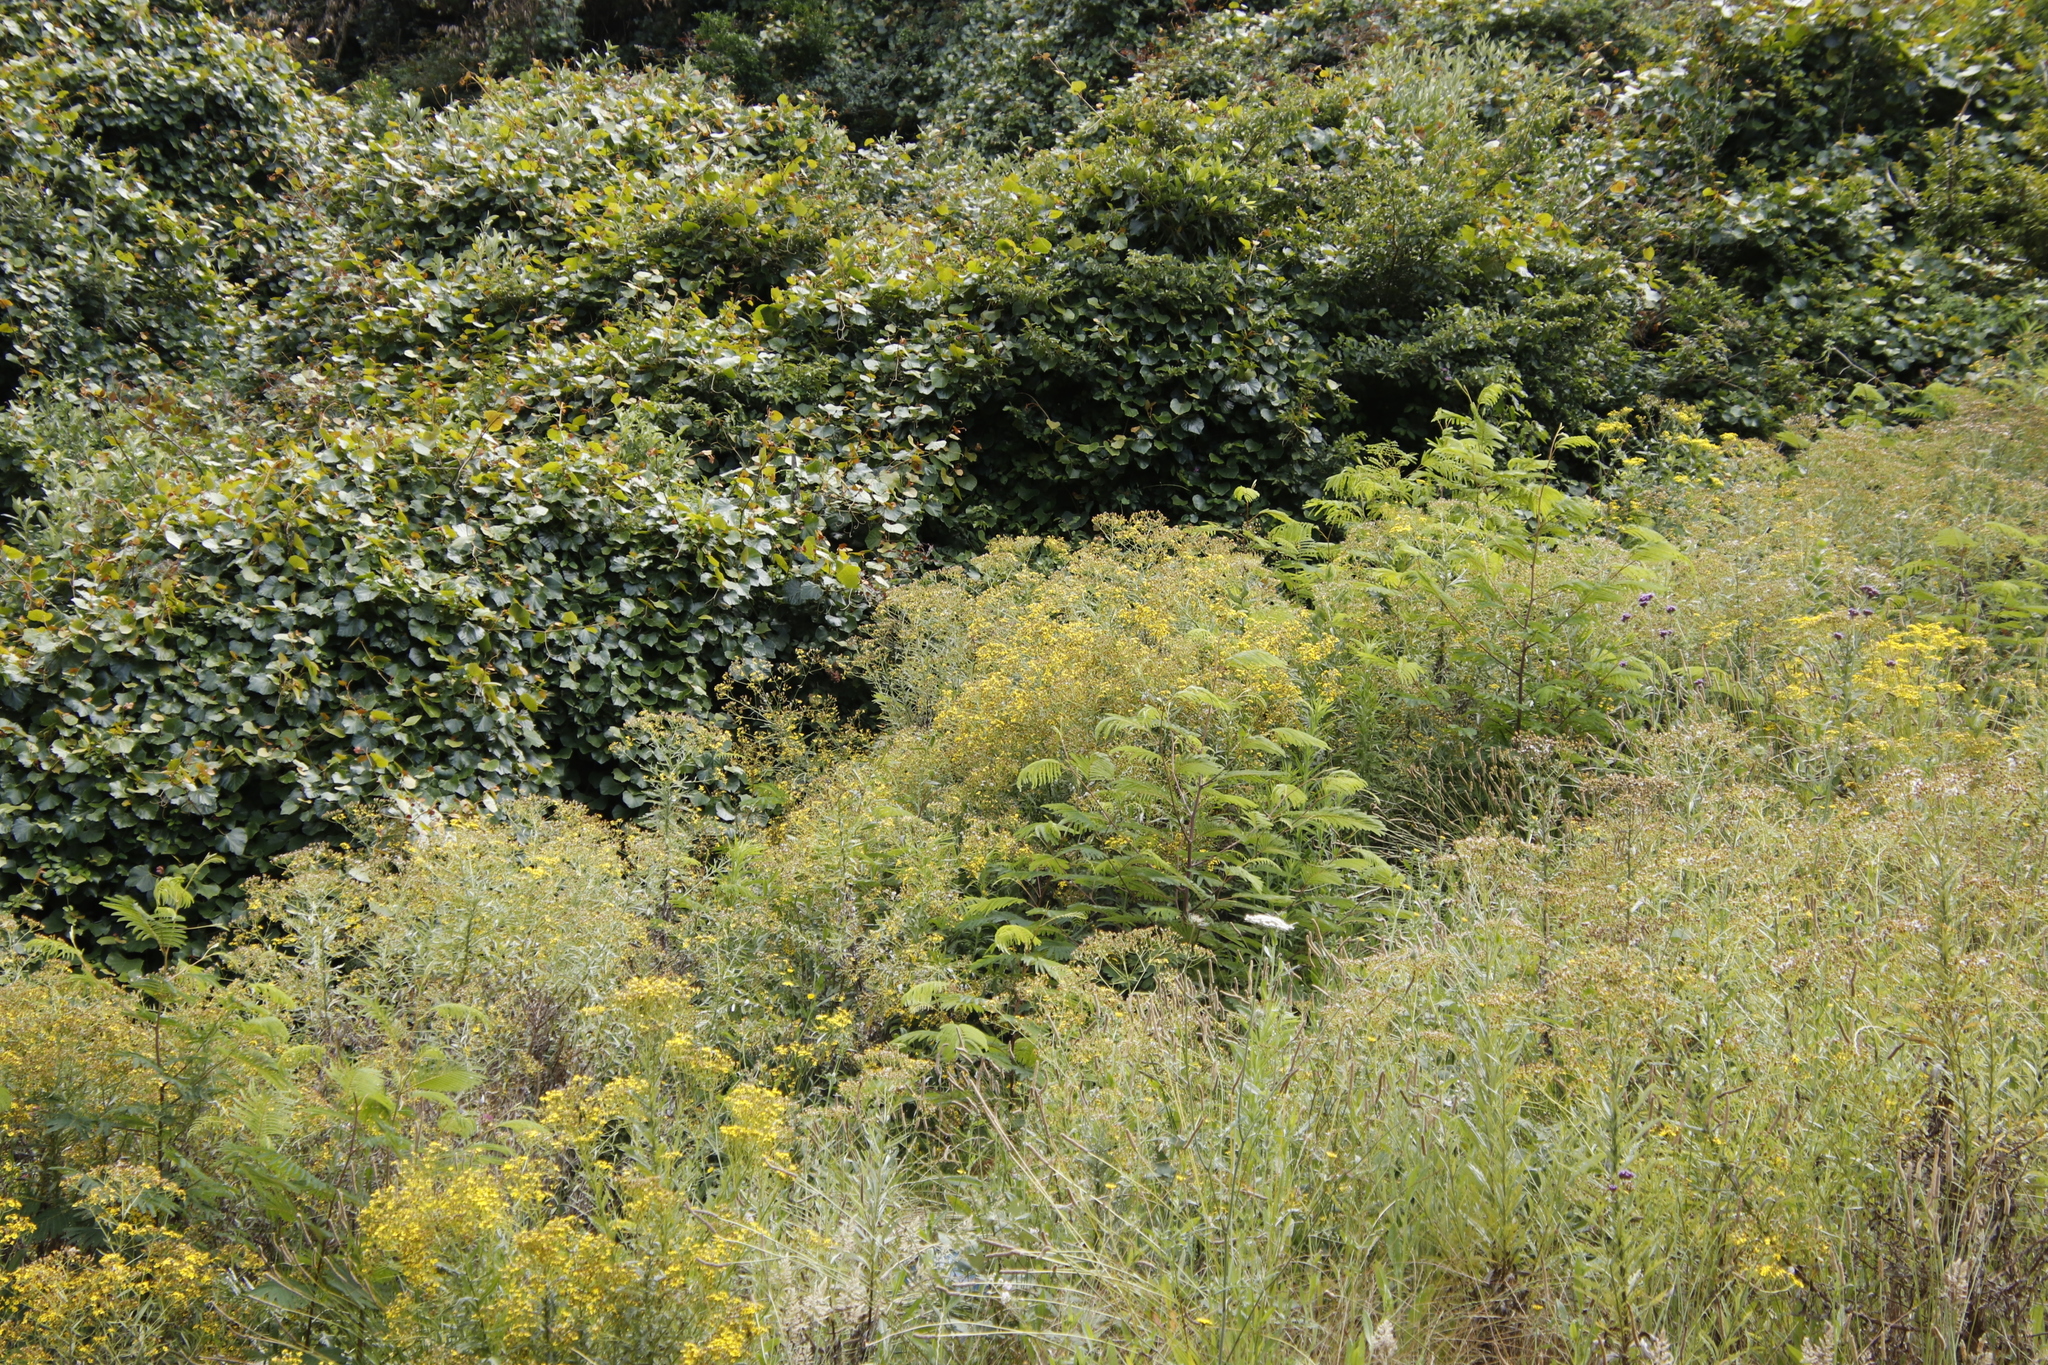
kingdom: Plantae
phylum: Tracheophyta
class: Magnoliopsida
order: Asterales
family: Asteraceae
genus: Senecio
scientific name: Senecio pterophorus
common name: Shoddy ragwort
